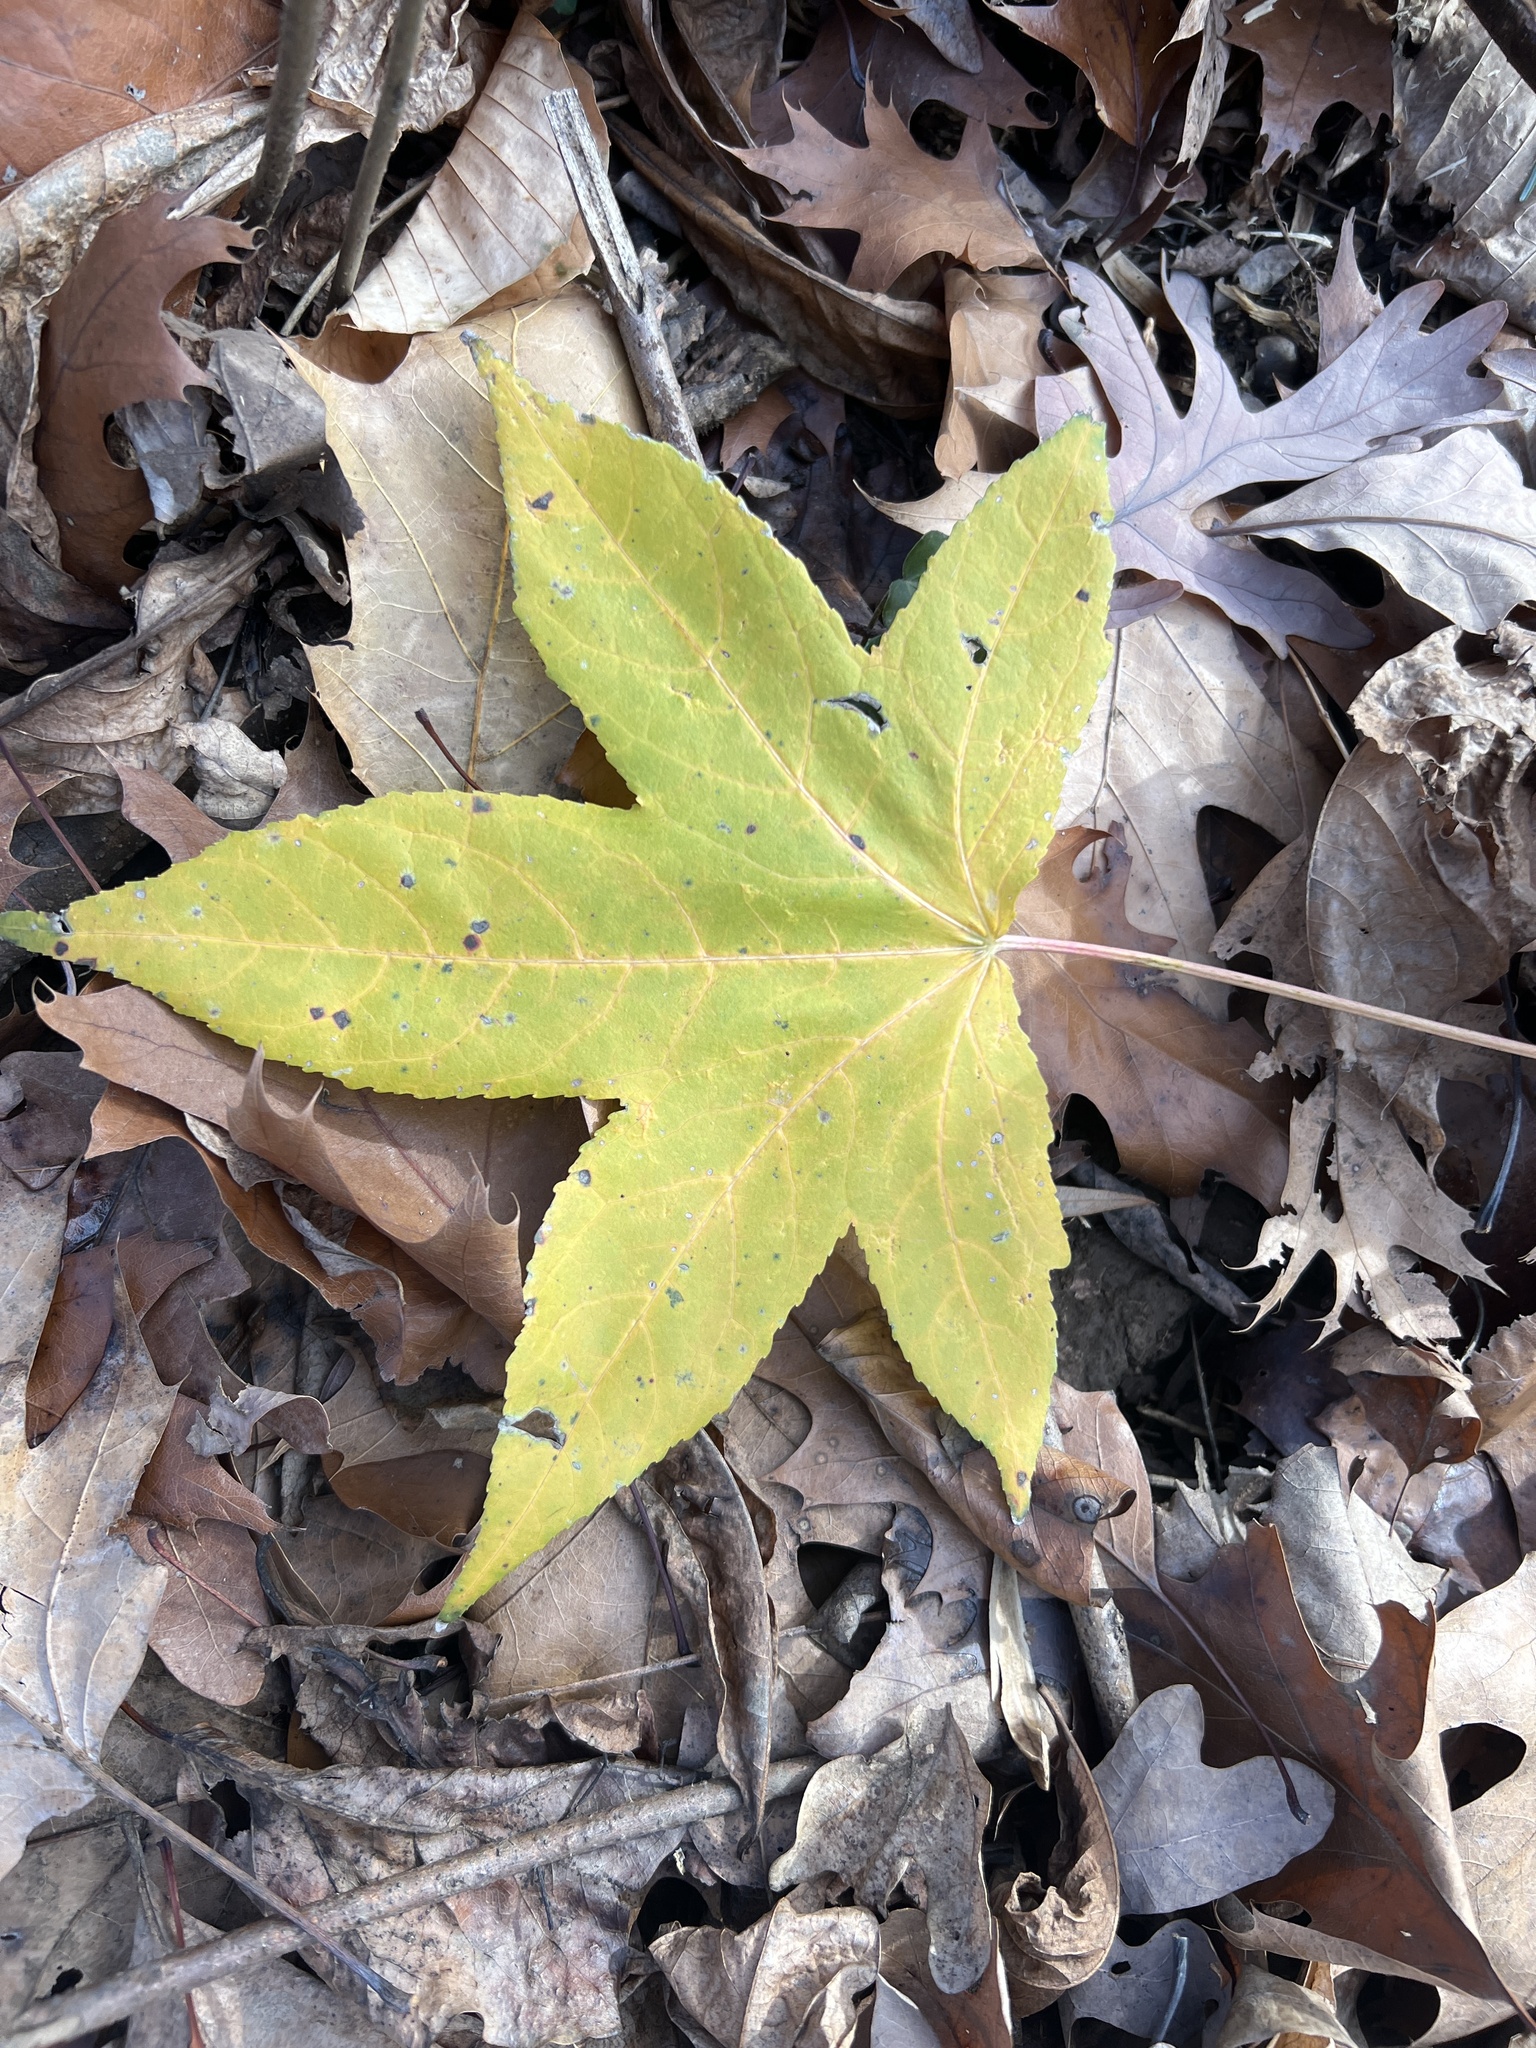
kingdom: Plantae
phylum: Tracheophyta
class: Magnoliopsida
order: Saxifragales
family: Altingiaceae
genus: Liquidambar
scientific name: Liquidambar styraciflua
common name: Sweet gum
